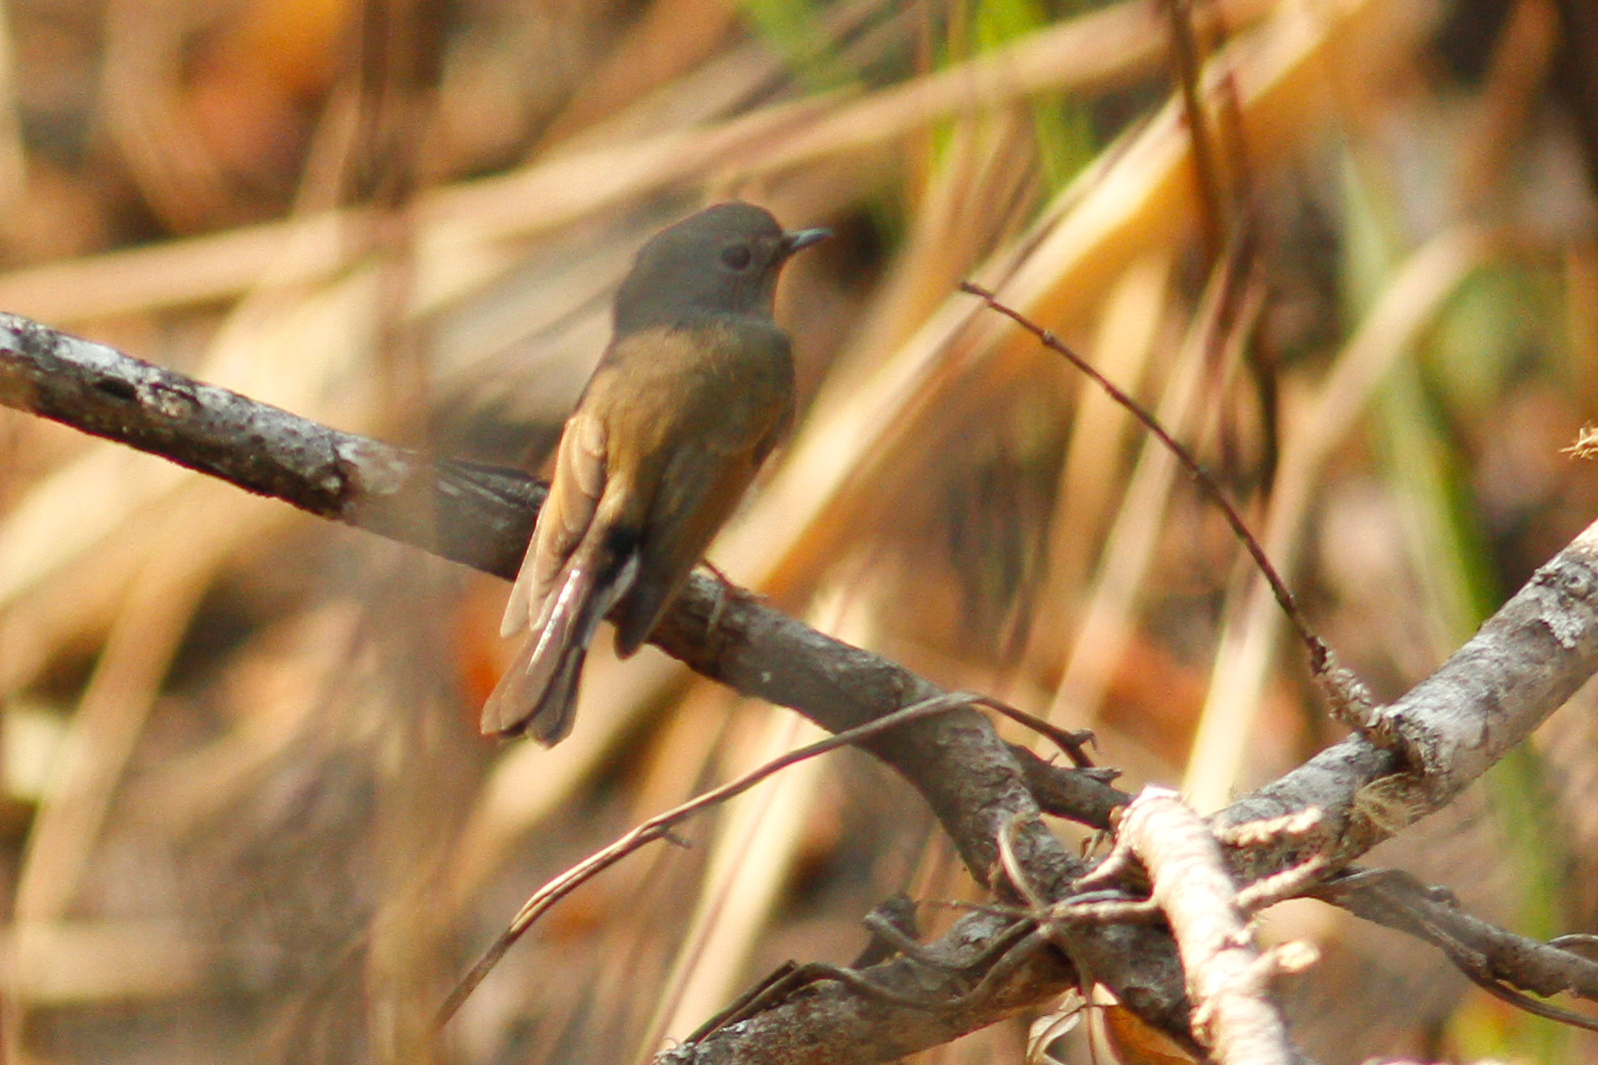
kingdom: Animalia
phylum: Chordata
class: Aves
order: Passeriformes
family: Muscicapidae
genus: Ficedula
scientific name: Ficedula albicilla
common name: Taiga flycatcher
